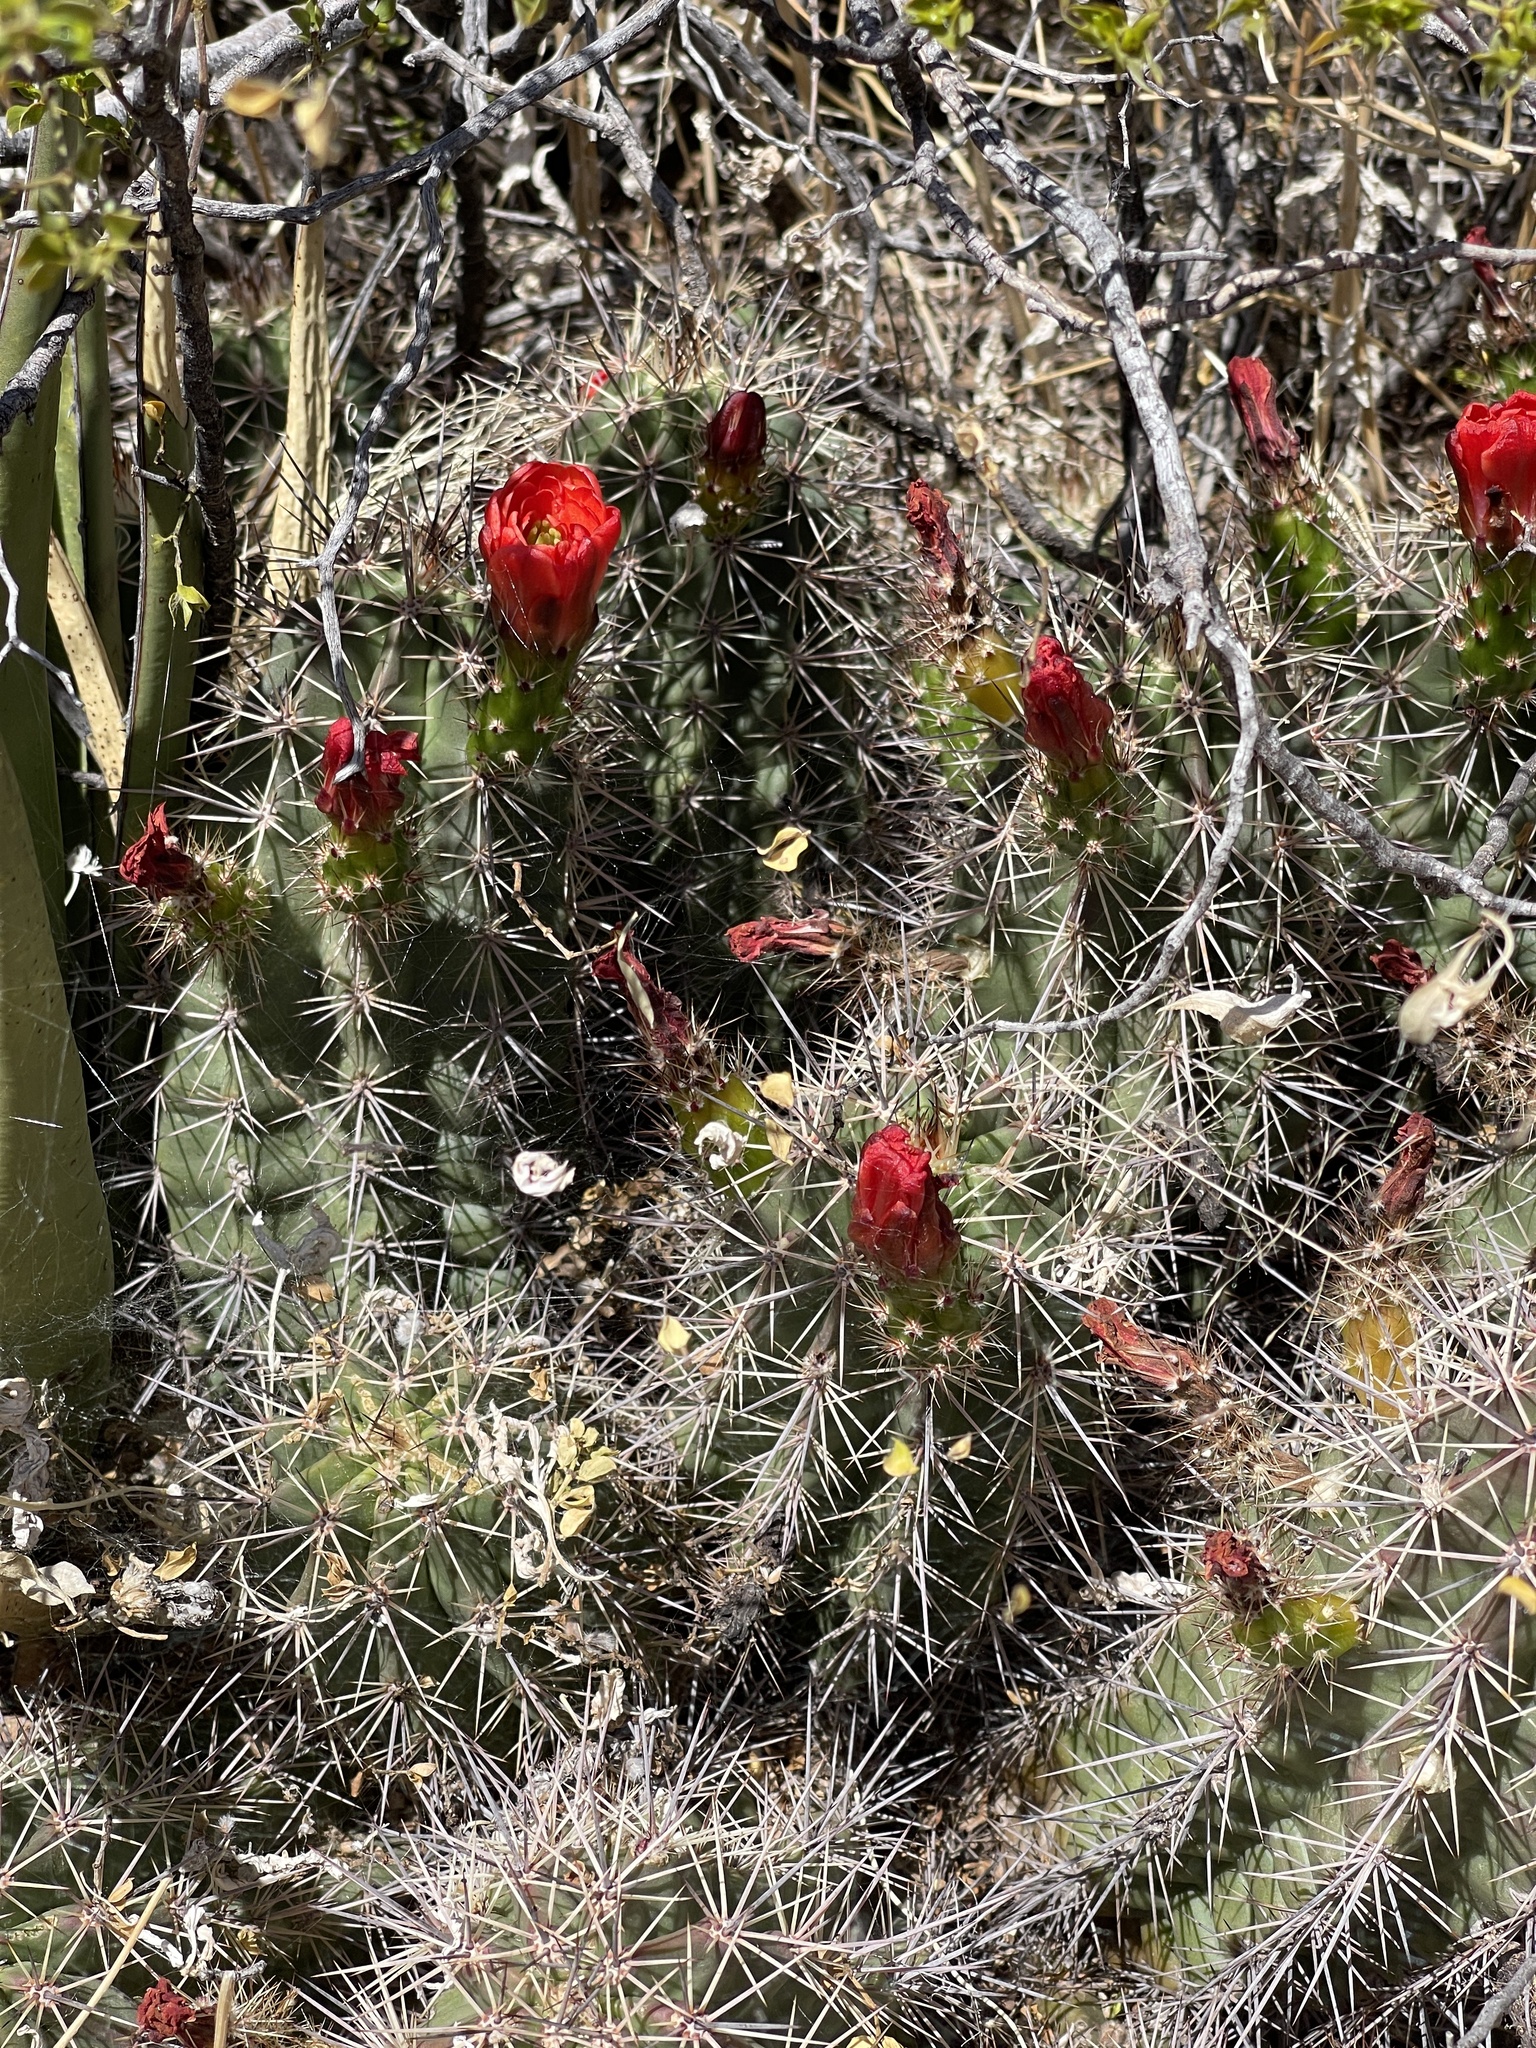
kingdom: Plantae
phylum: Tracheophyta
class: Magnoliopsida
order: Caryophyllales
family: Cactaceae
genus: Echinocereus
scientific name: Echinocereus coccineus
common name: Scarlet hedgehog cactus
